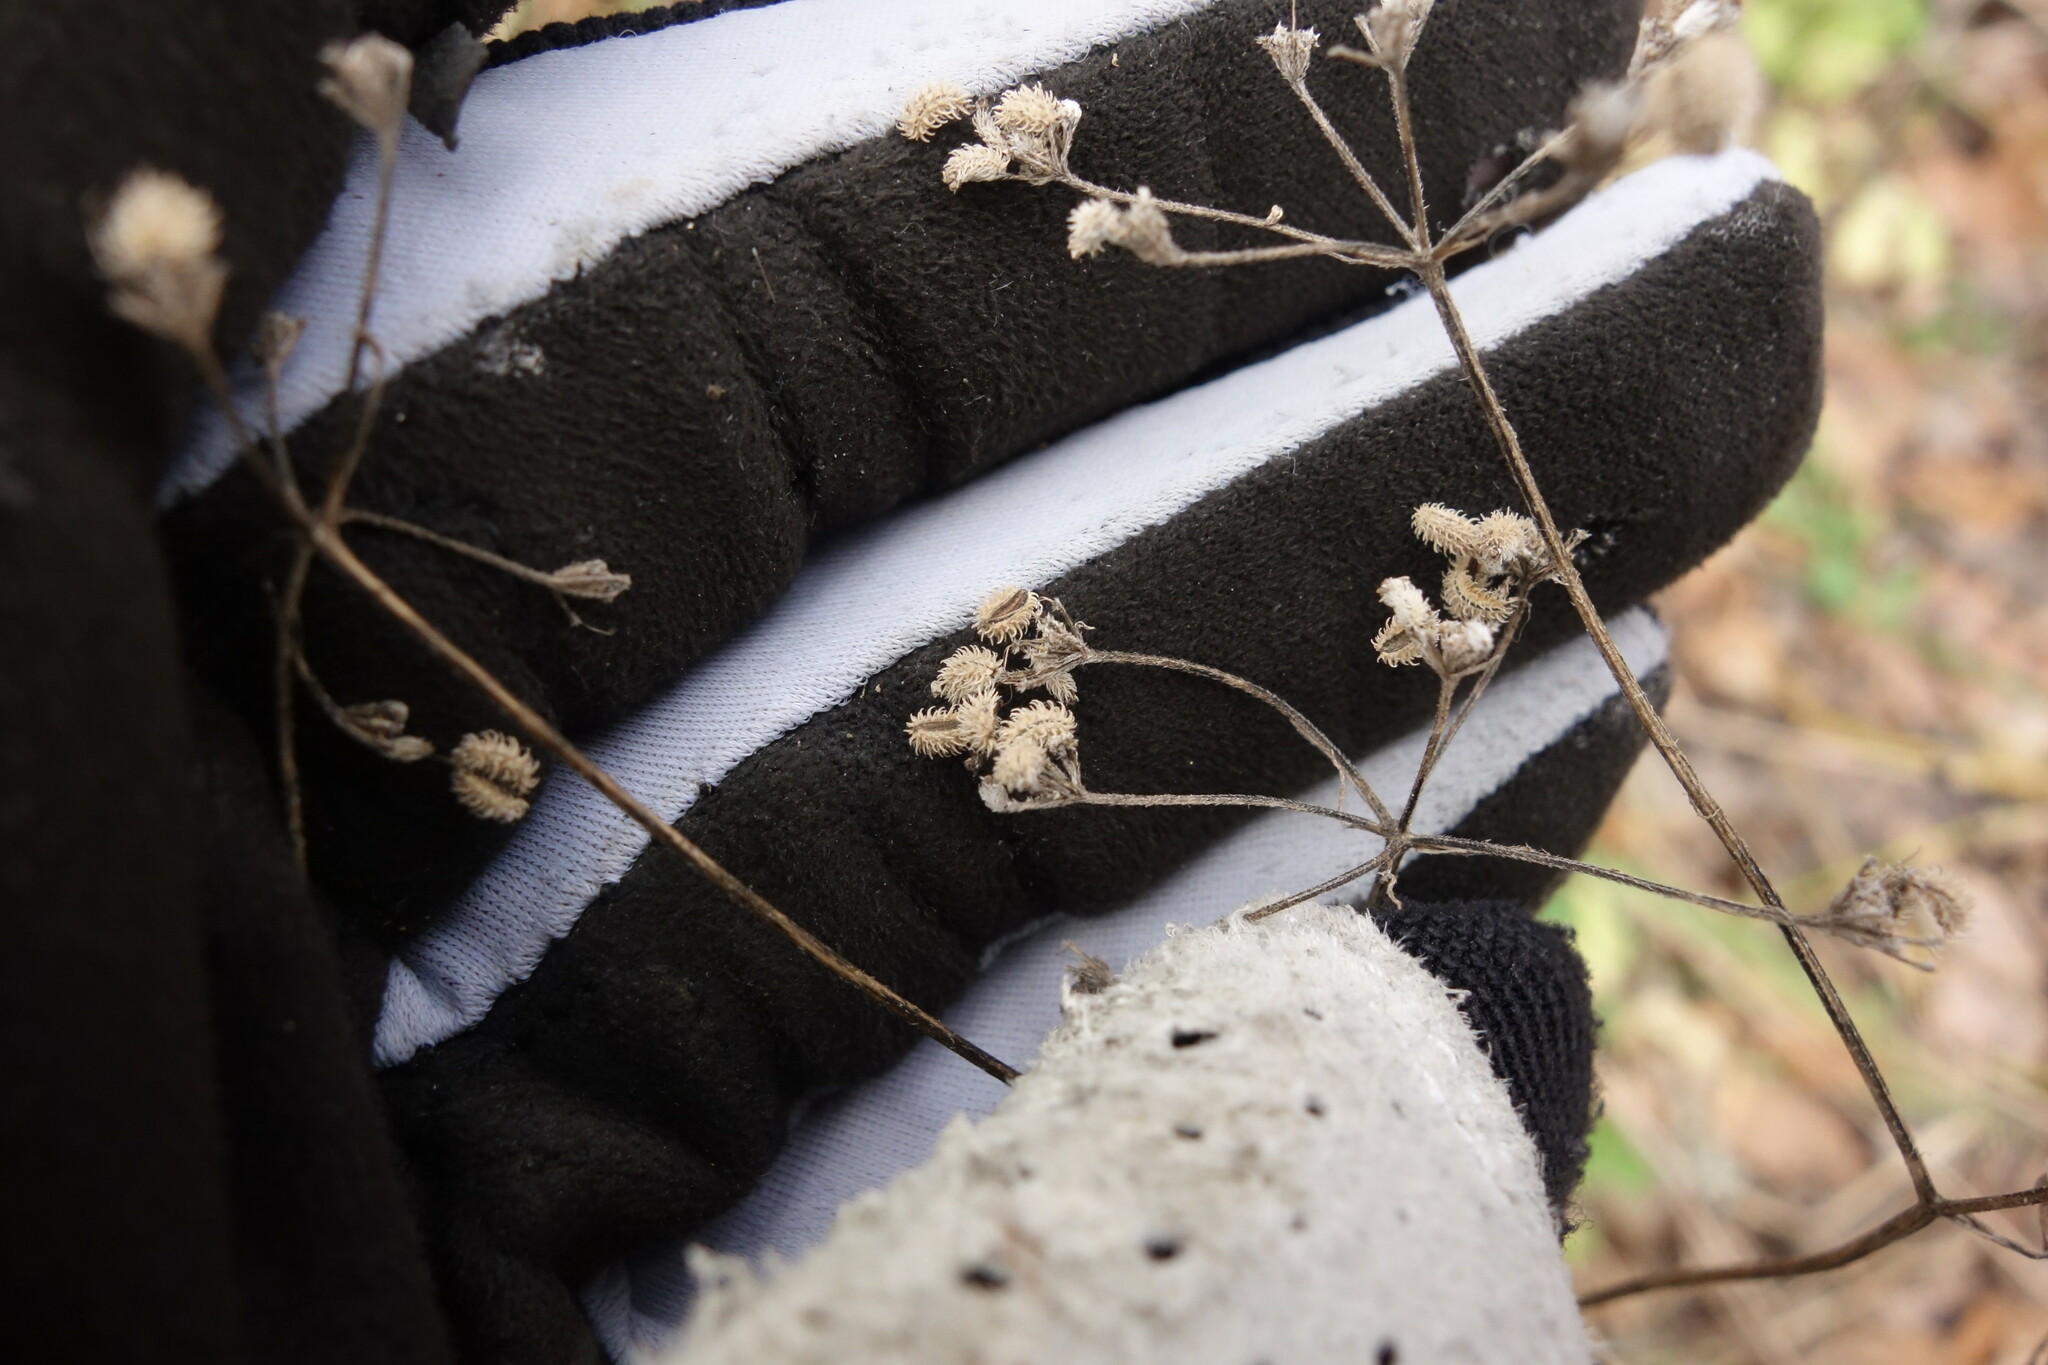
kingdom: Plantae
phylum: Tracheophyta
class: Magnoliopsida
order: Apiales
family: Apiaceae
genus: Torilis
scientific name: Torilis japonica
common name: Upright hedge-parsley
